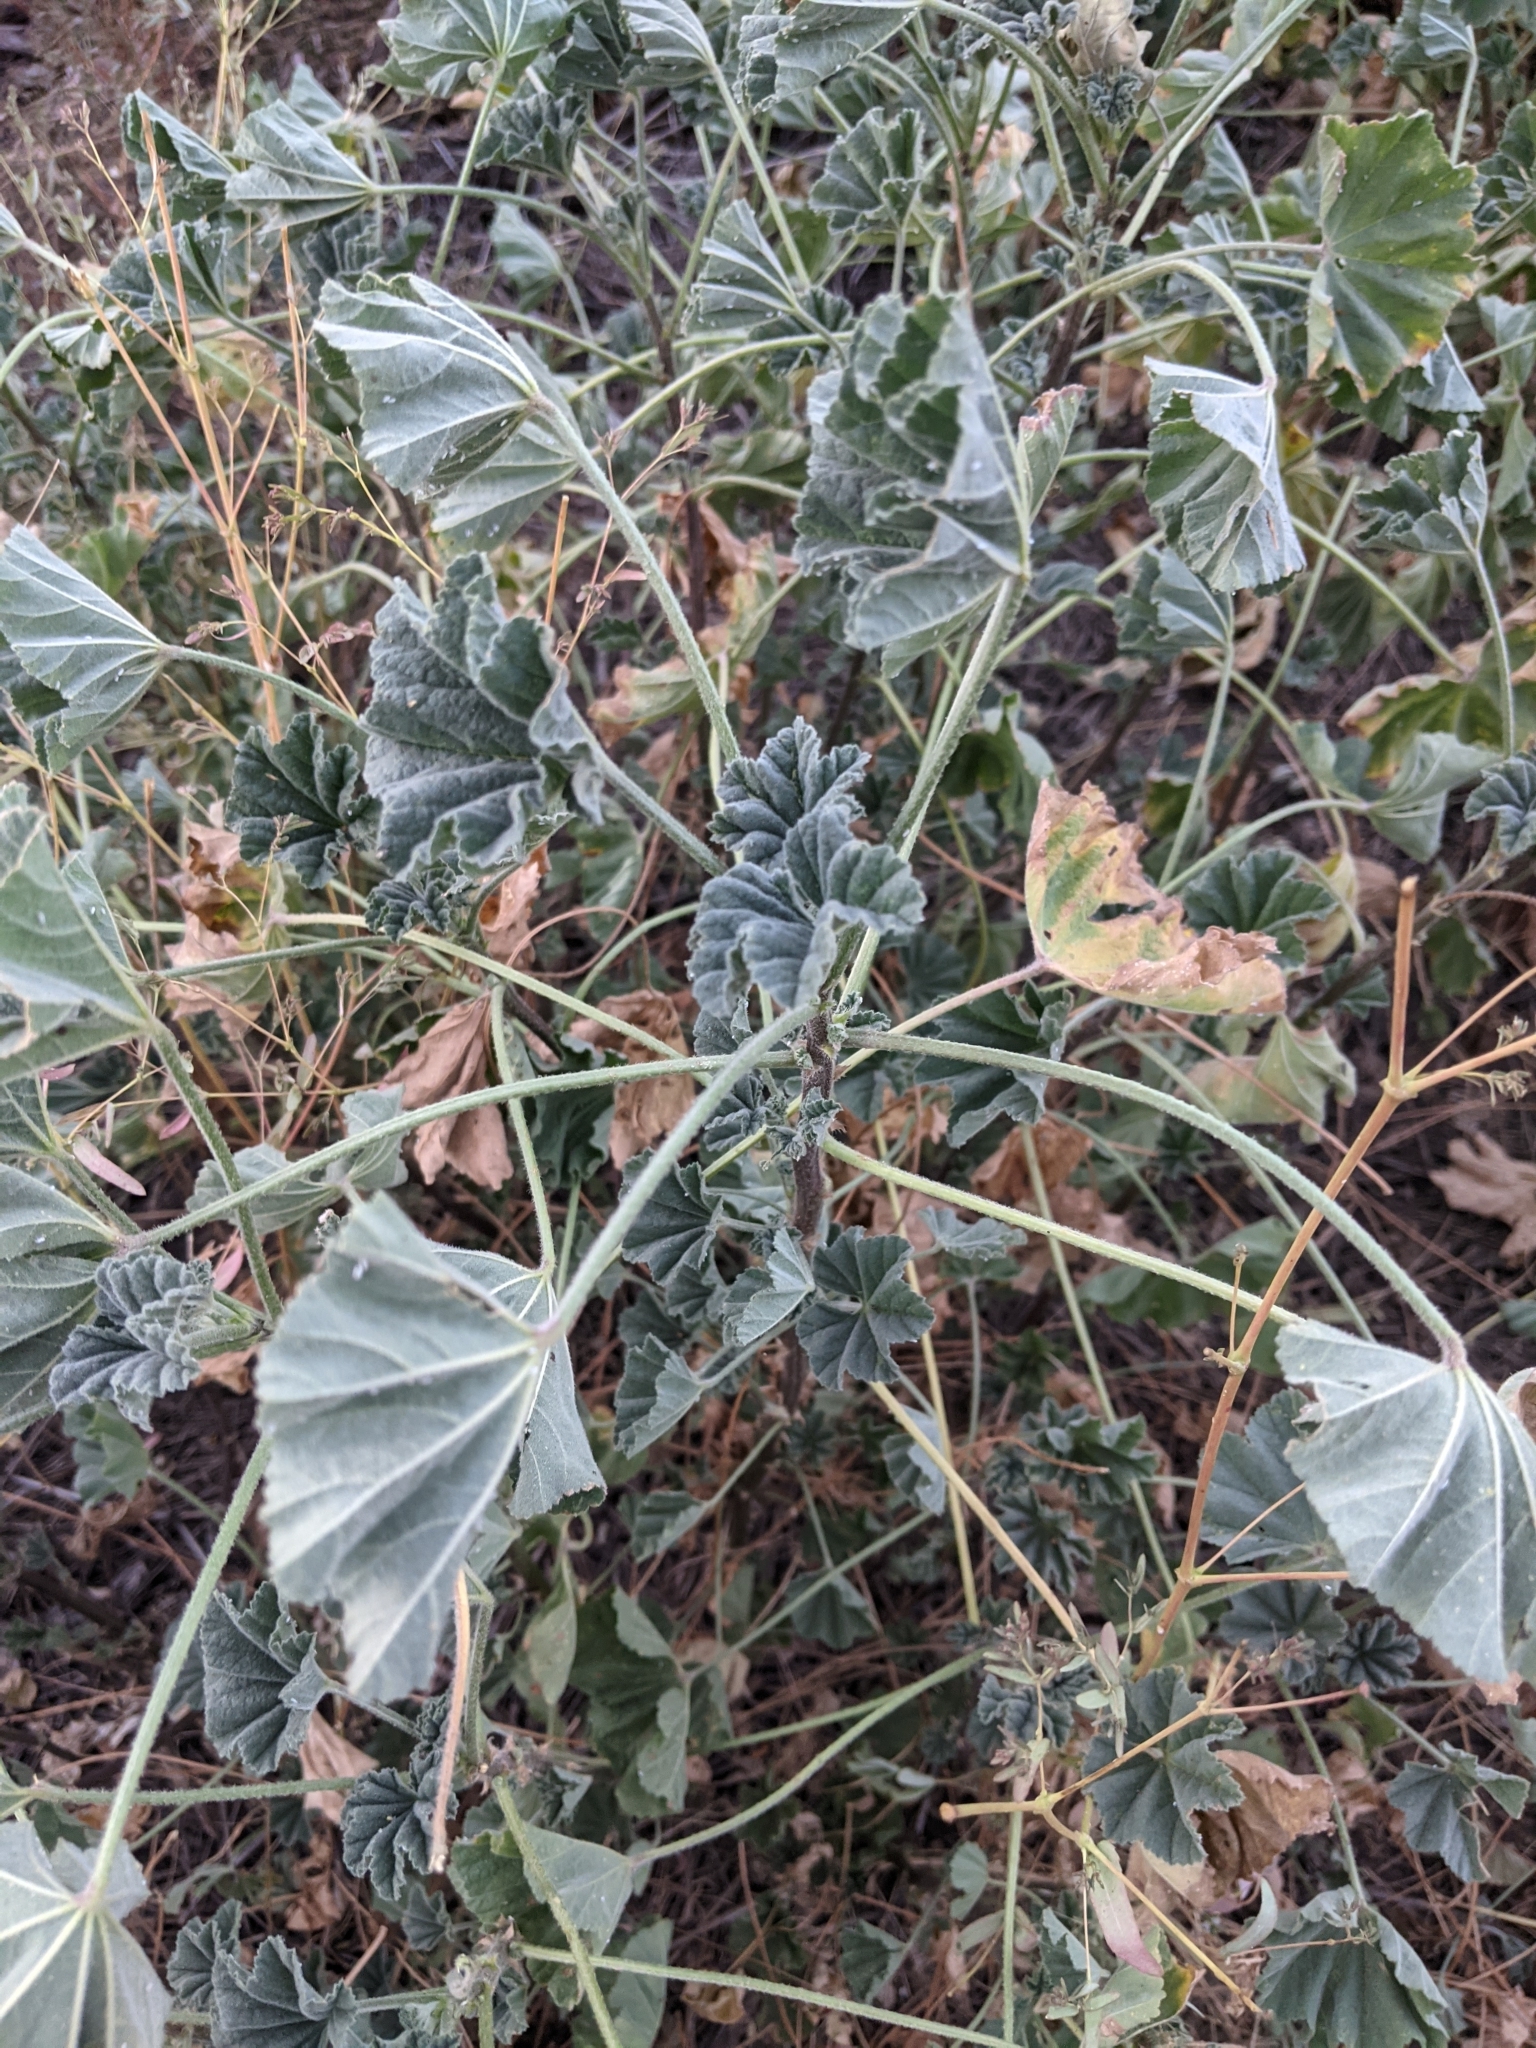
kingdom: Plantae
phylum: Tracheophyta
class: Magnoliopsida
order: Malvales
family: Malvaceae
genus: Malva
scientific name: Malva parviflora
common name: Least mallow
